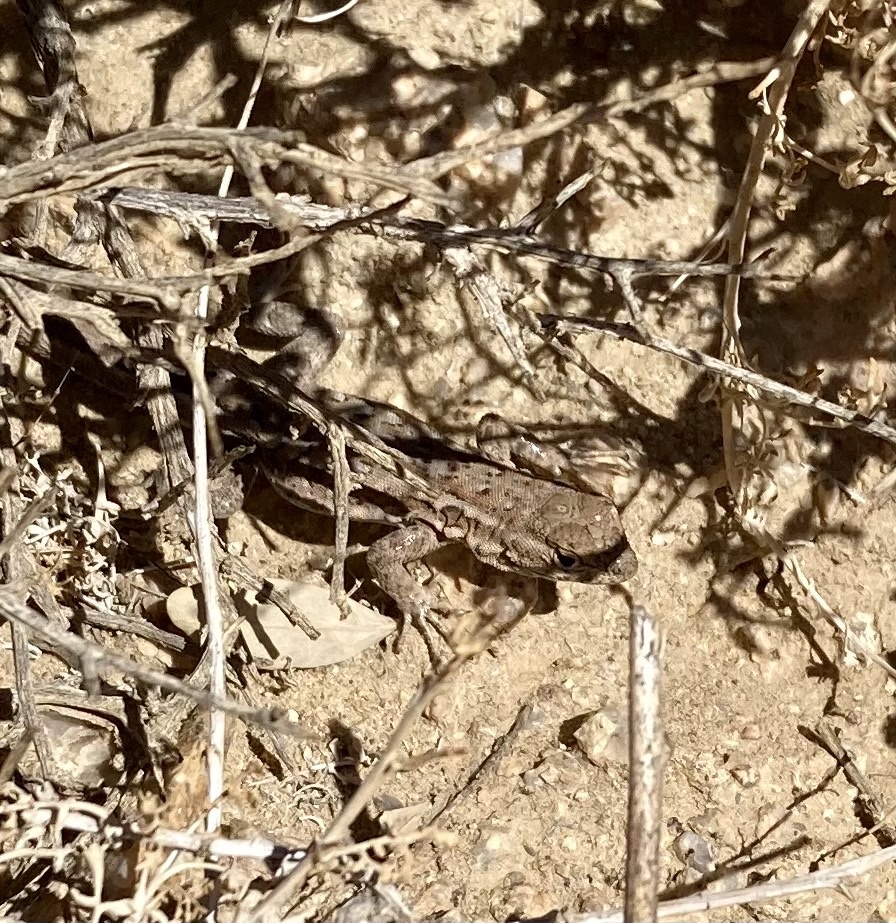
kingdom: Animalia
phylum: Chordata
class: Squamata
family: Phrynosomatidae
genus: Uta
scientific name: Uta stansburiana
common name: Side-blotched lizard
